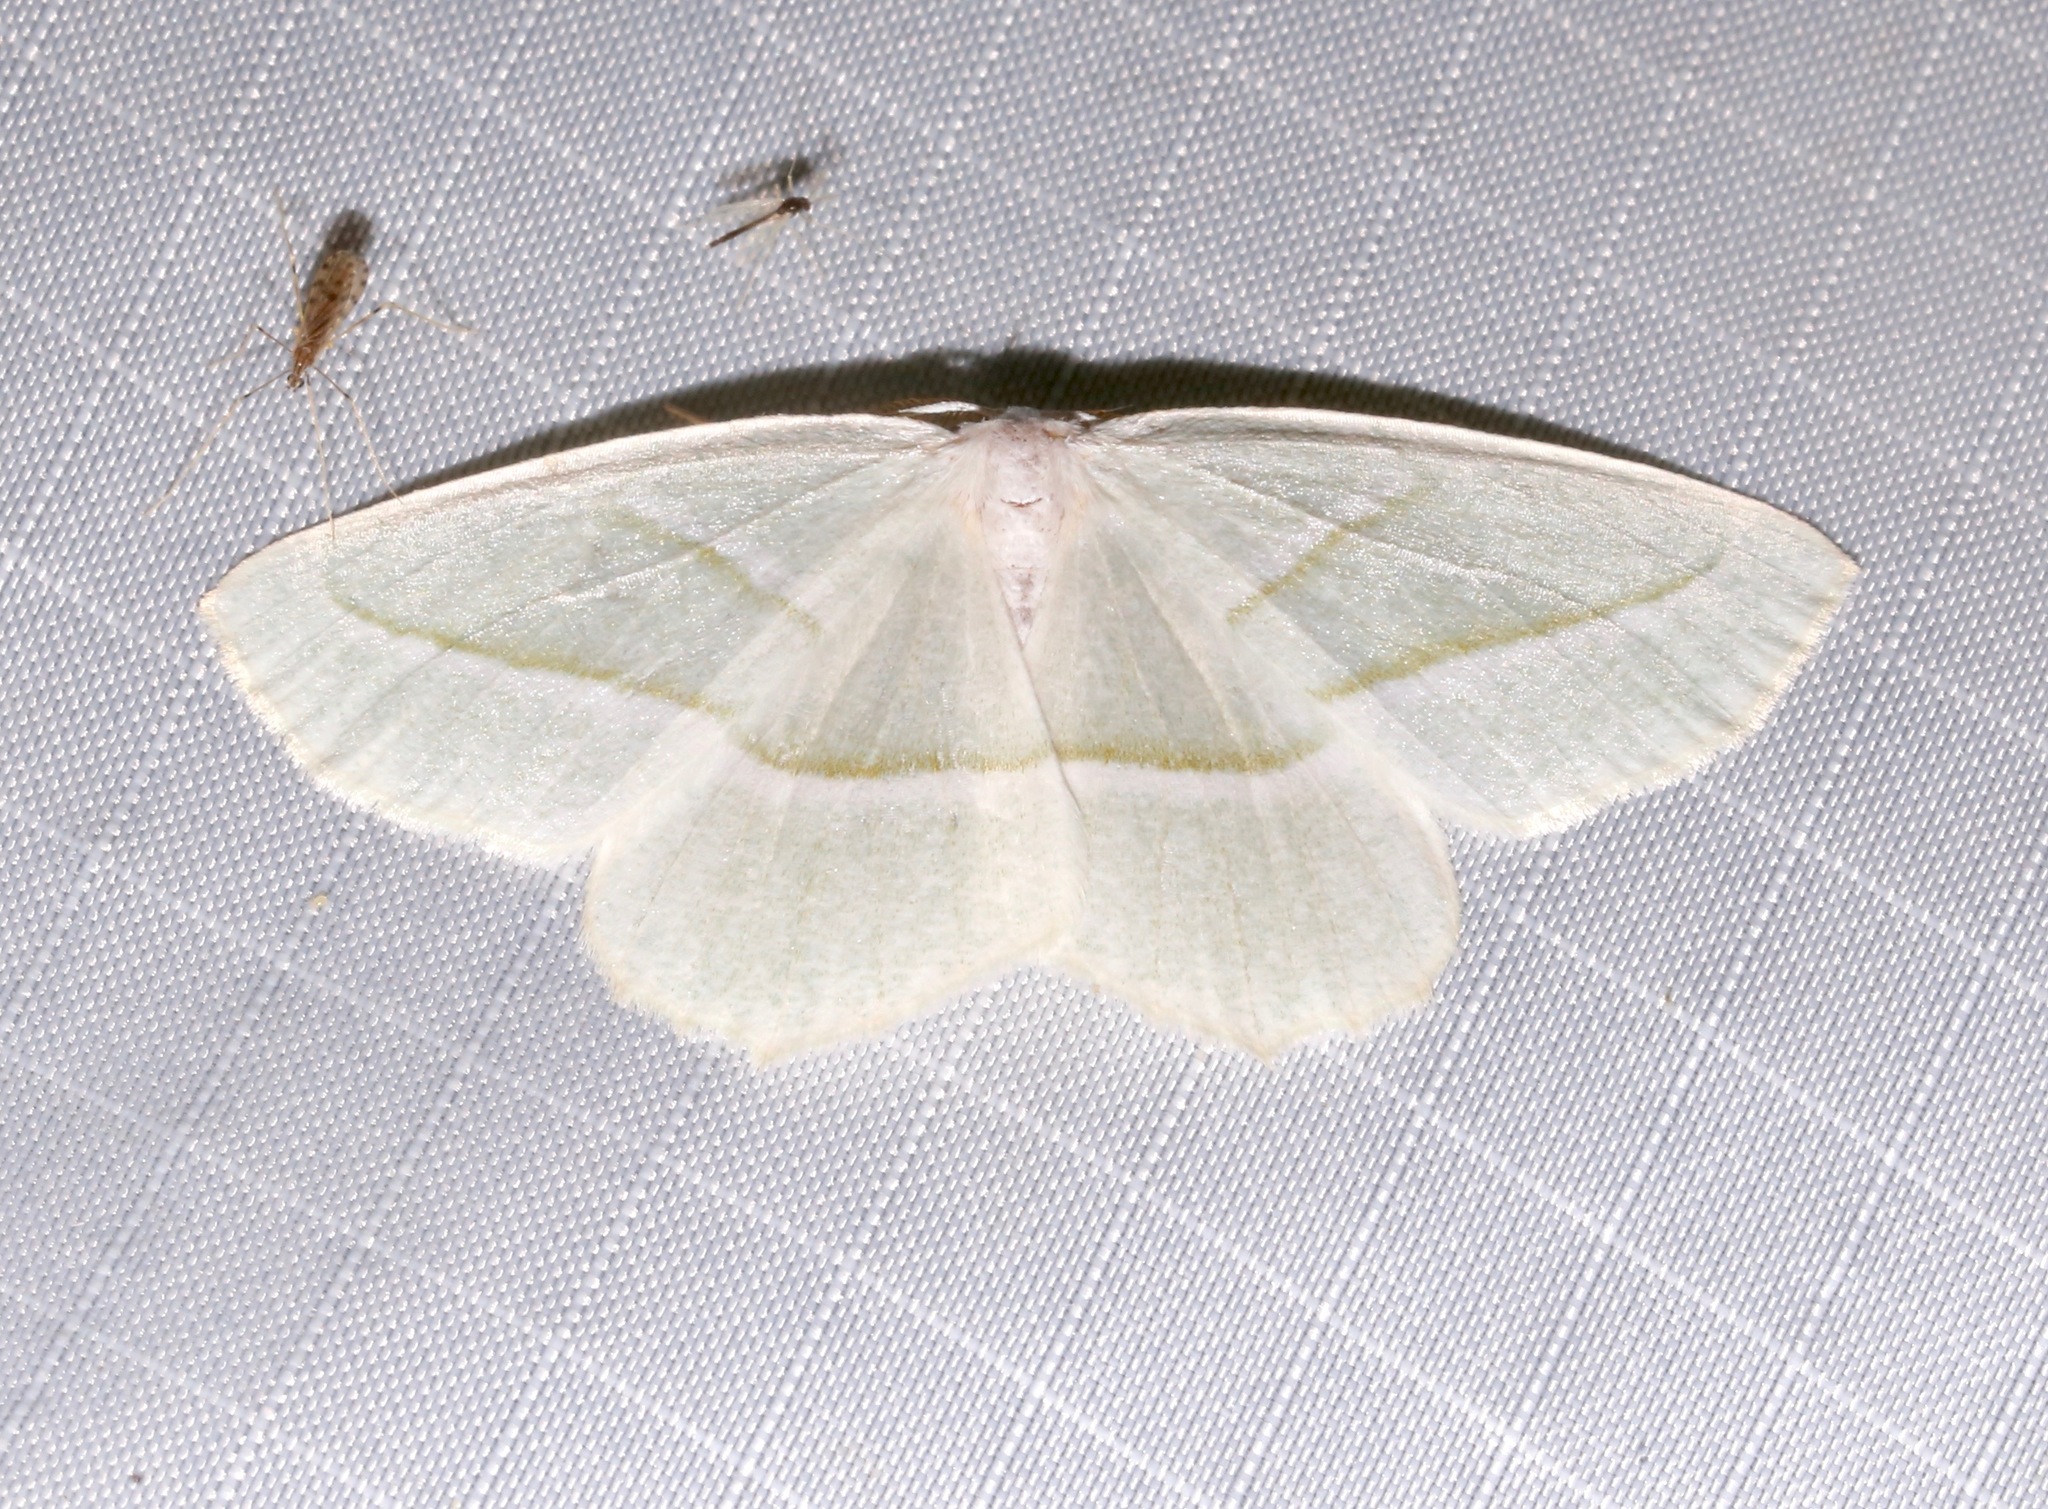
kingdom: Animalia
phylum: Arthropoda
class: Insecta
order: Lepidoptera
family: Geometridae
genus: Campaea
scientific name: Campaea perlata
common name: Fringed looper
